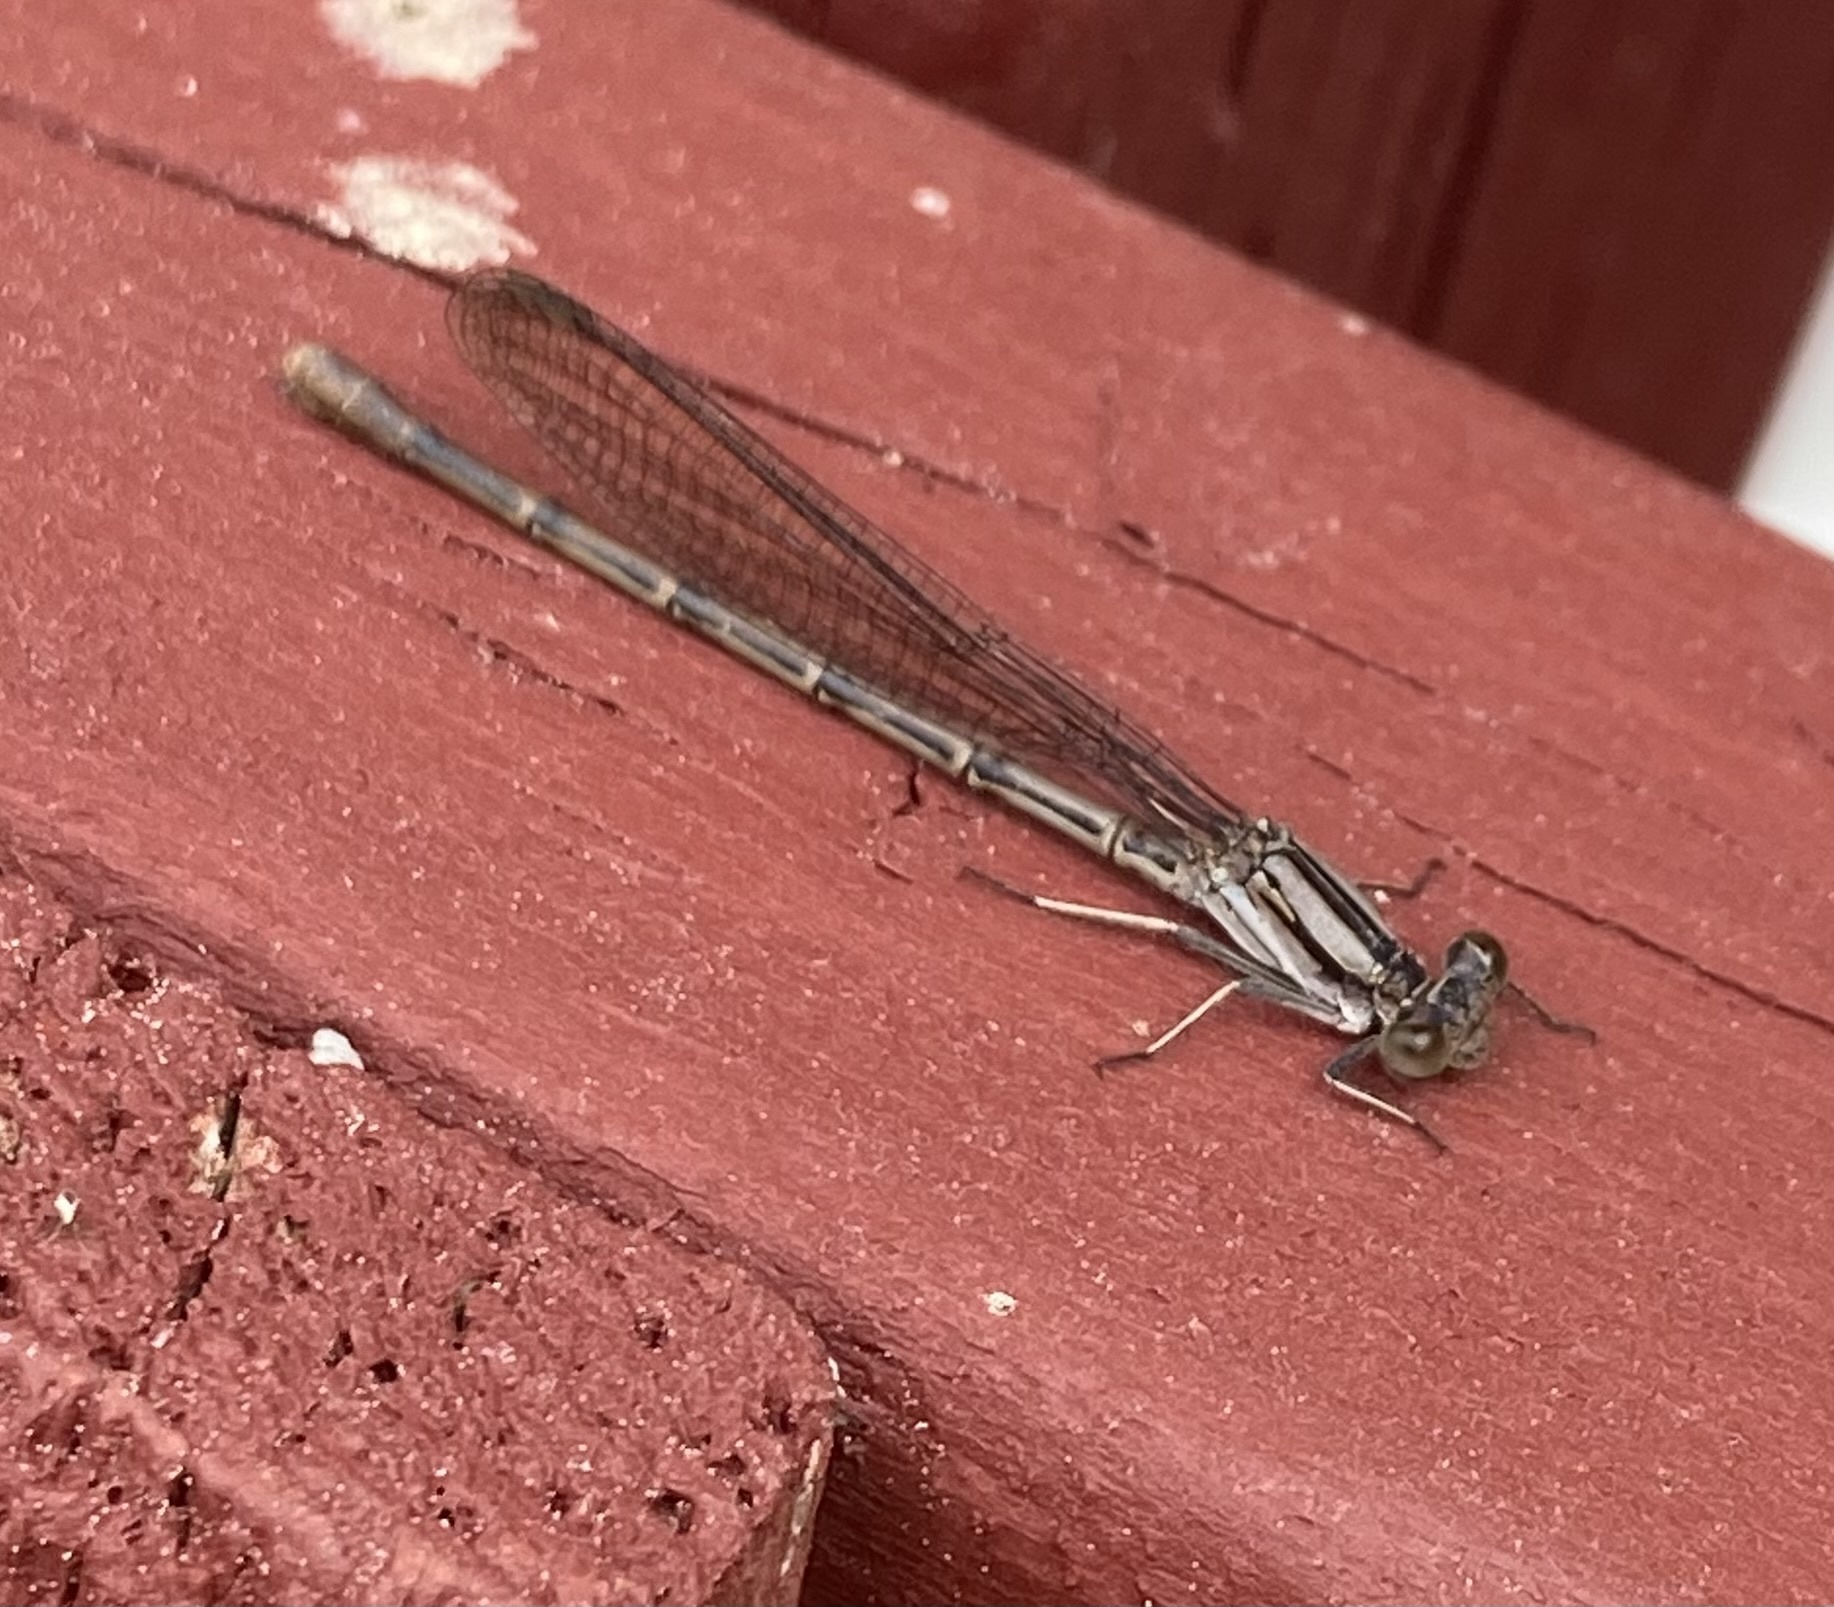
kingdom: Animalia
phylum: Arthropoda
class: Insecta
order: Odonata
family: Coenagrionidae
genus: Argia
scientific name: Argia fumipennis
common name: Variable dancer
